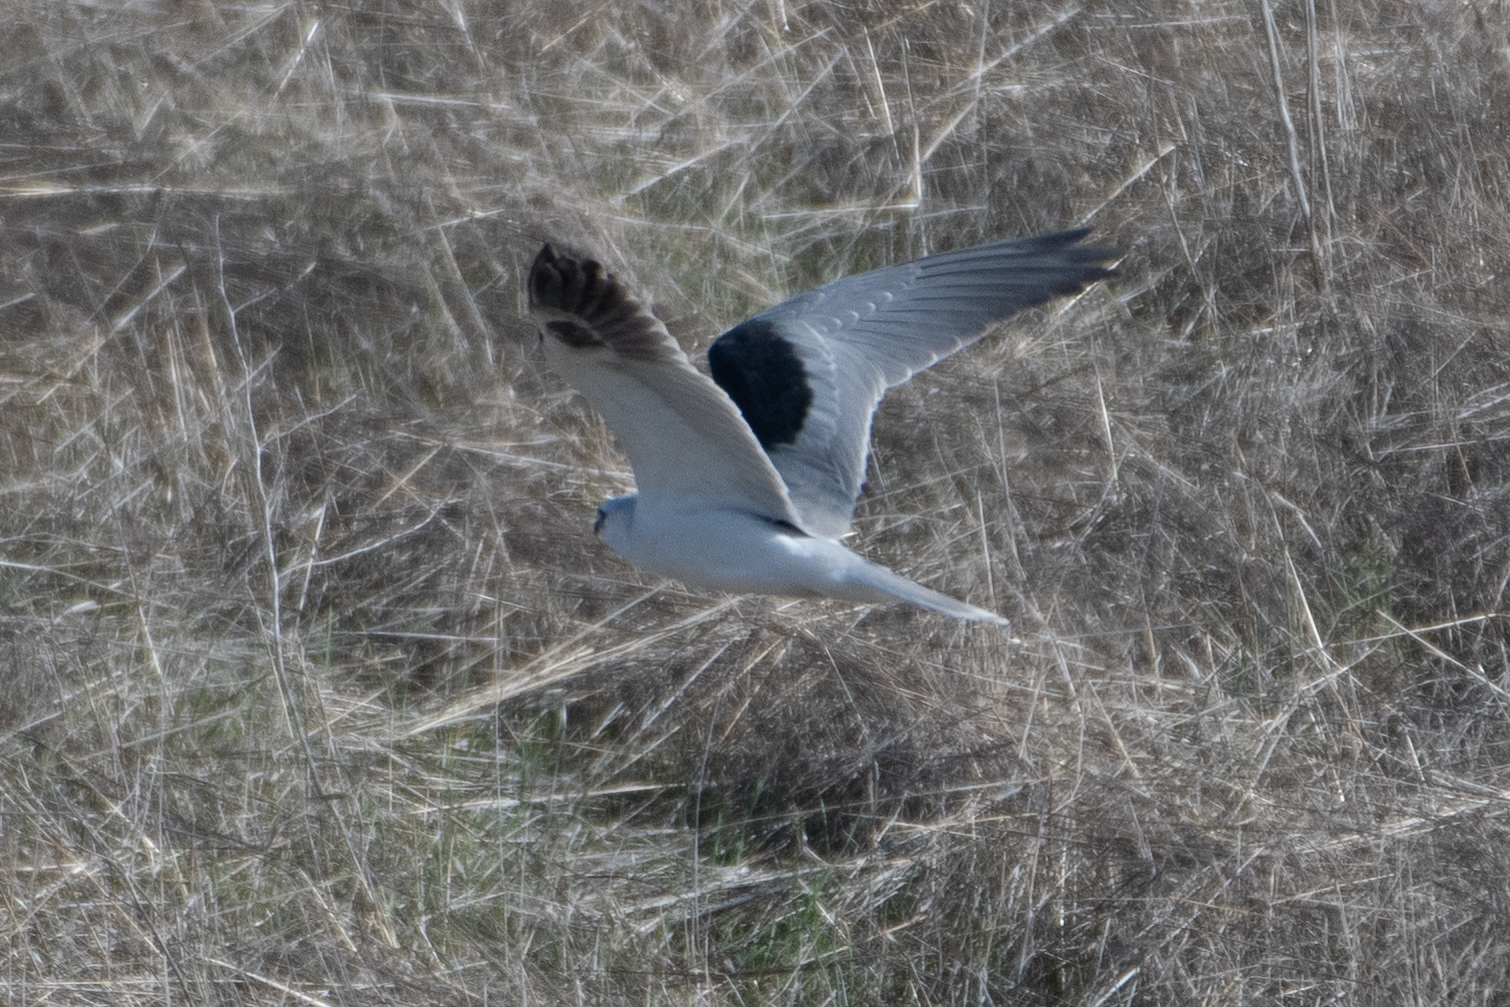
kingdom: Animalia
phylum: Chordata
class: Aves
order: Accipitriformes
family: Accipitridae
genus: Elanus
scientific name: Elanus leucurus
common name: White-tailed kite
